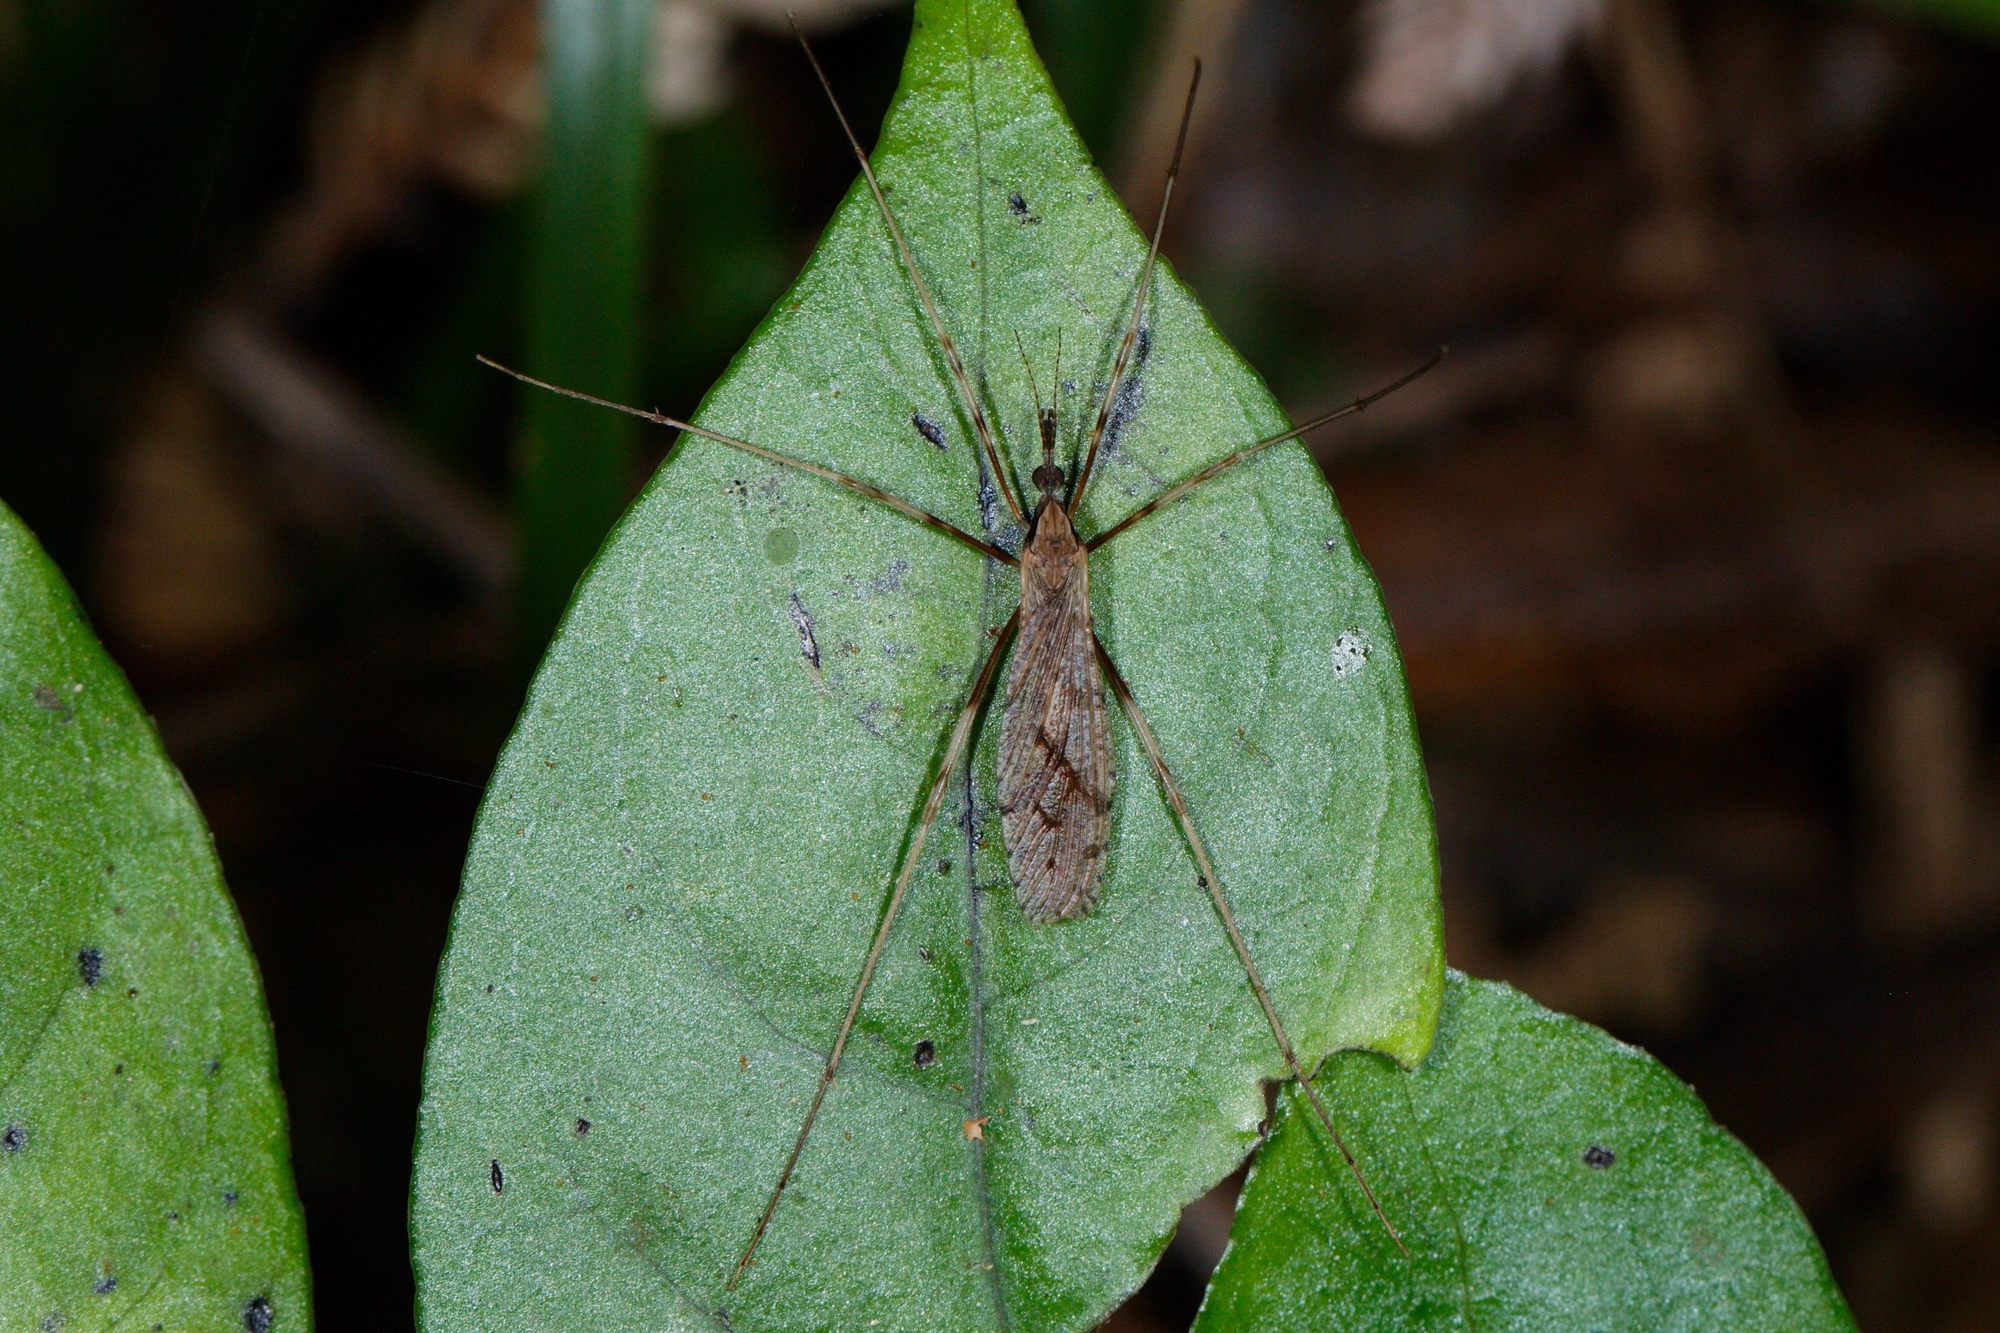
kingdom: Animalia
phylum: Arthropoda
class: Insecta
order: Diptera
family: Limoniidae
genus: Rhamphophila
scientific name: Rhamphophila sinistra
